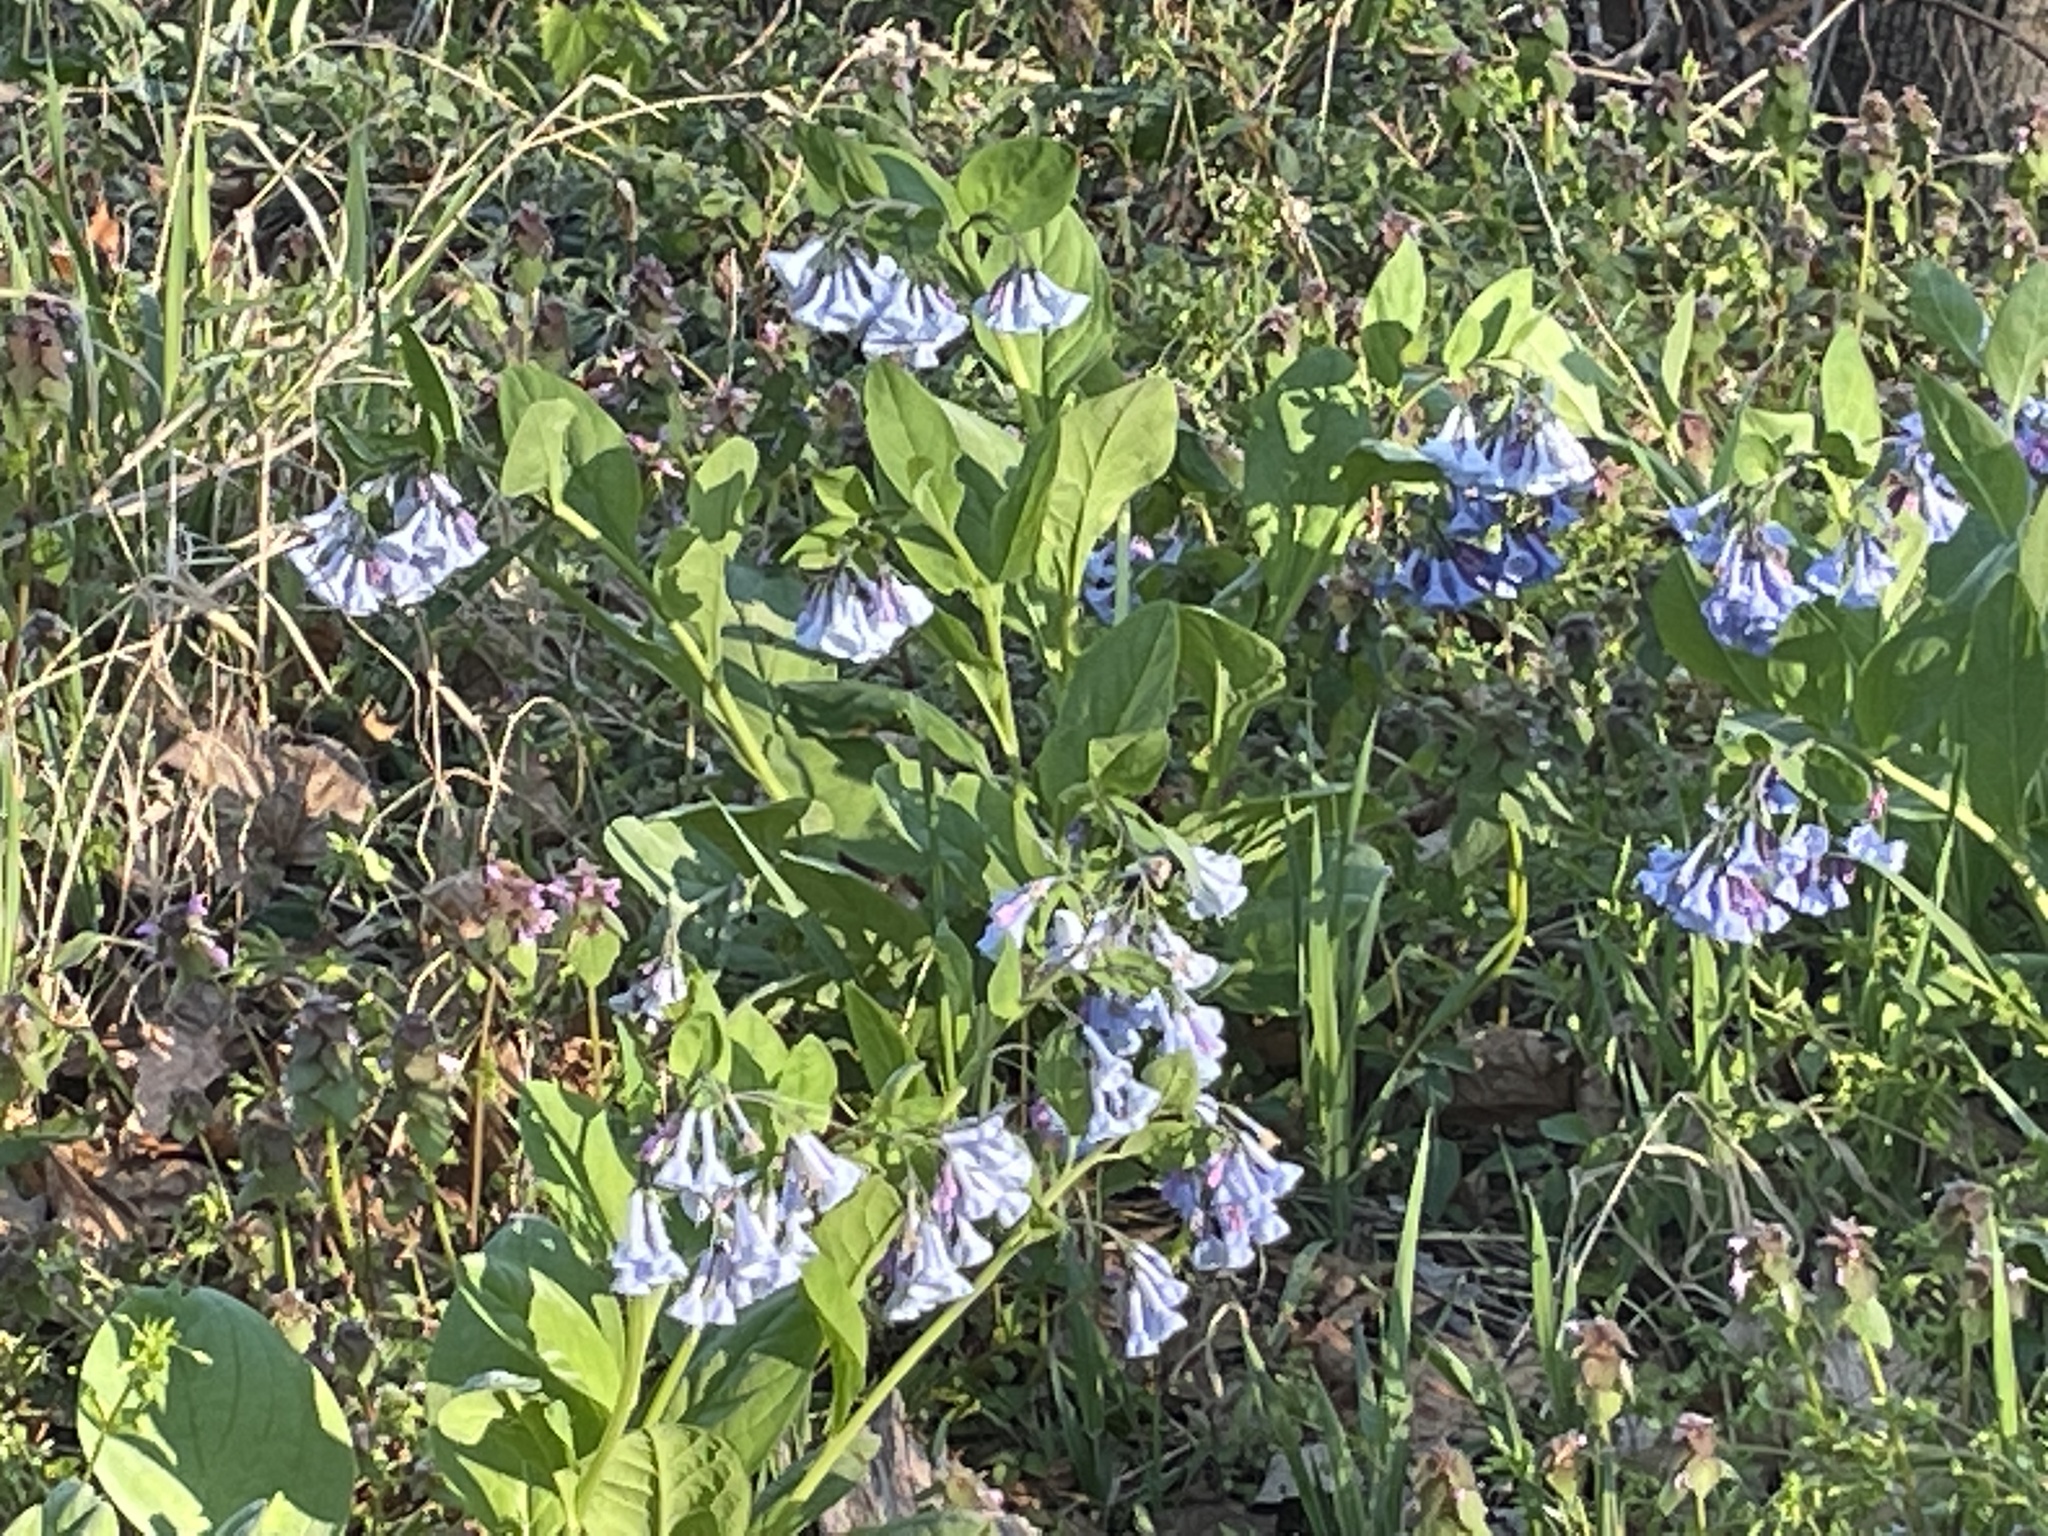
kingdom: Plantae
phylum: Tracheophyta
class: Magnoliopsida
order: Boraginales
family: Boraginaceae
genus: Mertensia
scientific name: Mertensia virginica
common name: Virginia bluebells
